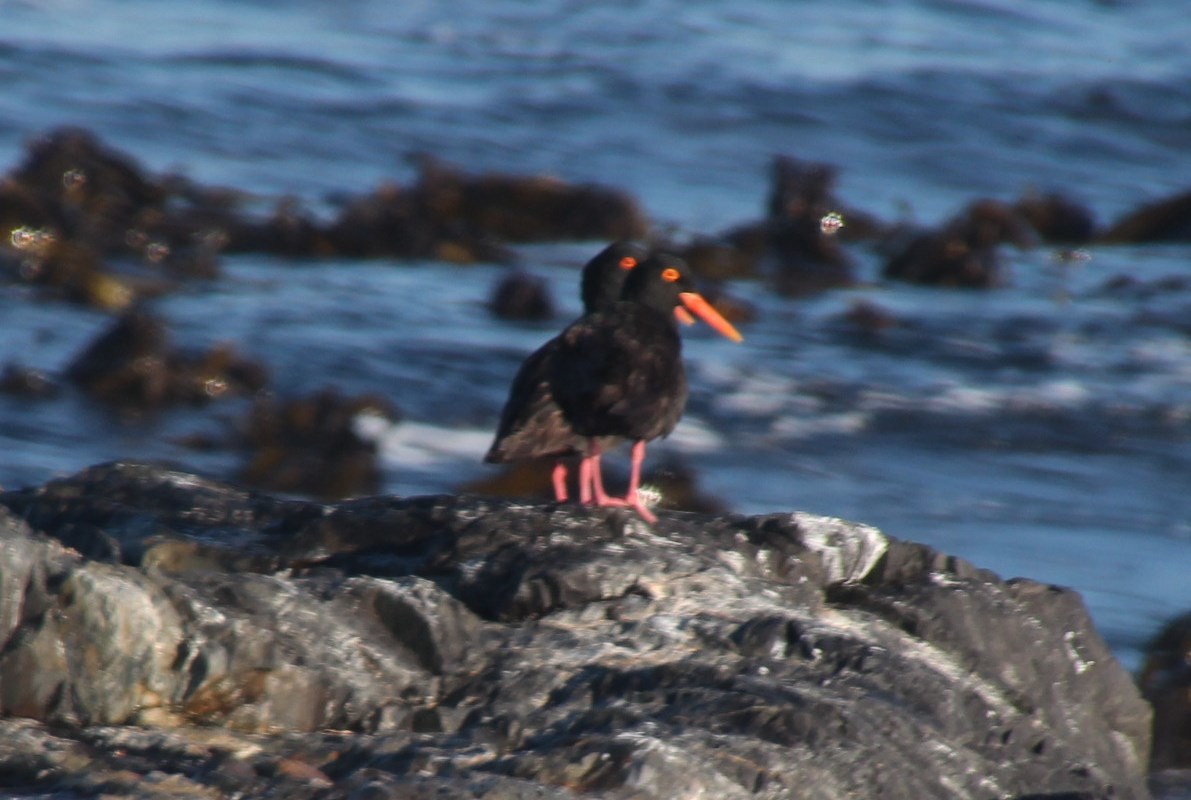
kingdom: Animalia
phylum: Chordata
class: Aves
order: Charadriiformes
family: Haematopodidae
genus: Haematopus
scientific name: Haematopus moquini
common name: African oystercatcher
